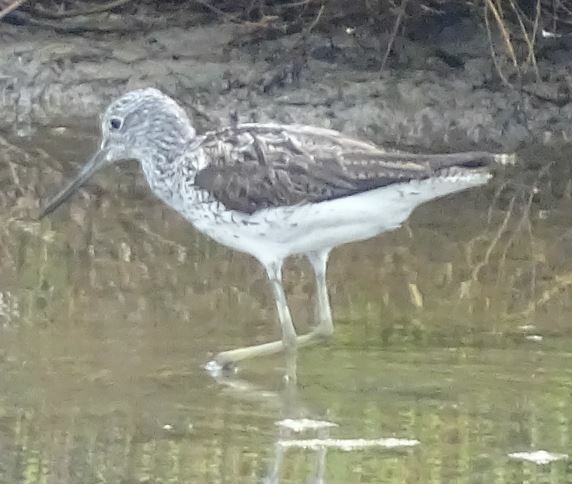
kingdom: Animalia
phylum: Chordata
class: Aves
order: Charadriiformes
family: Scolopacidae
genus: Tringa
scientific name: Tringa nebularia
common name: Common greenshank
